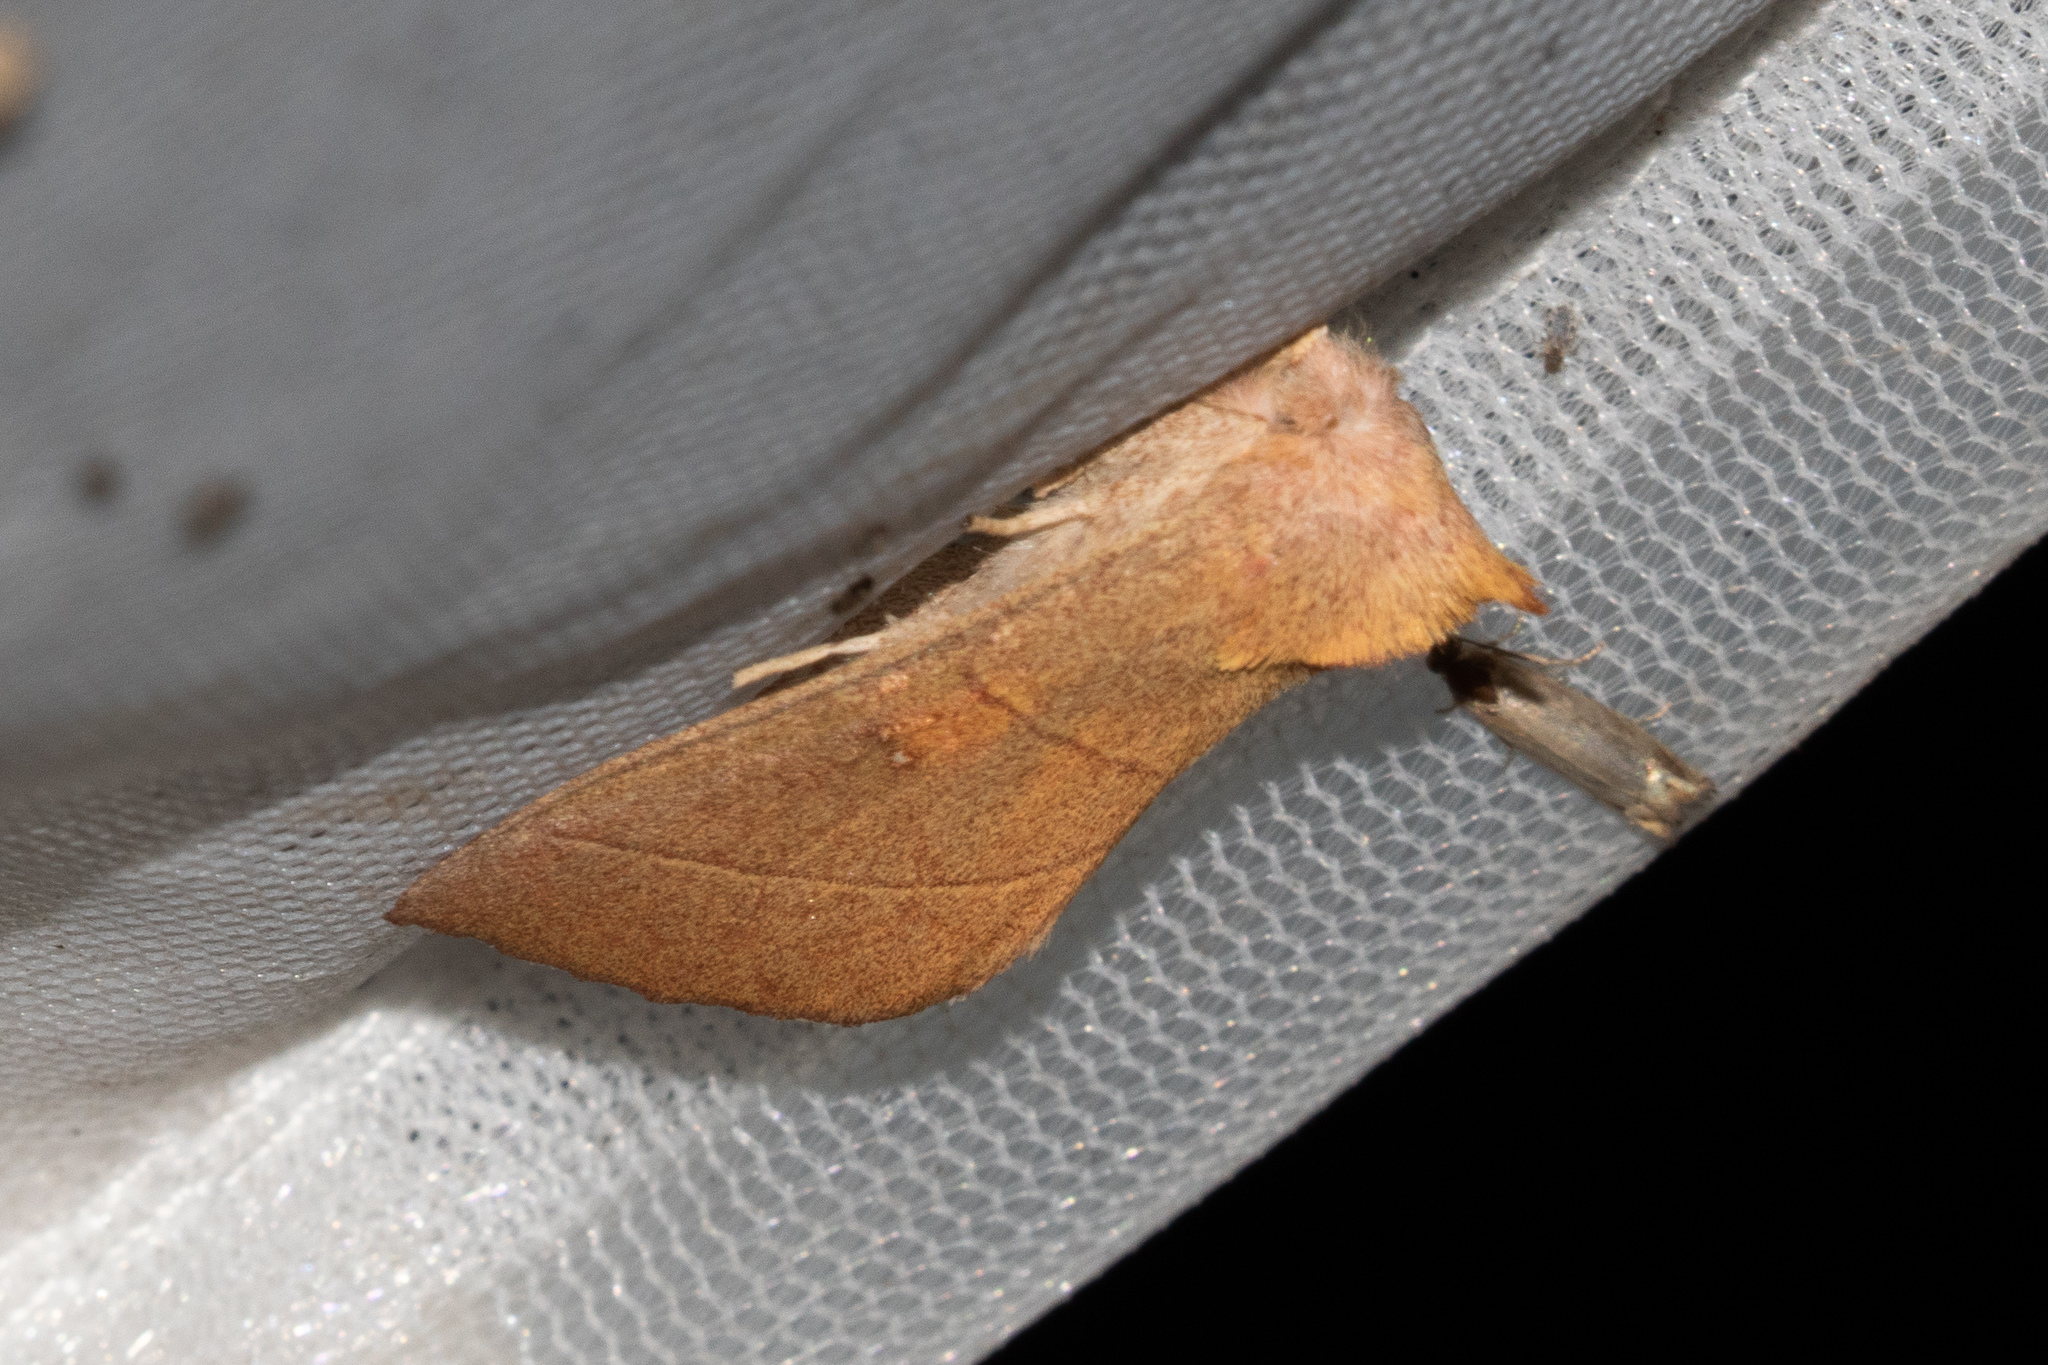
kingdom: Animalia
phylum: Arthropoda
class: Insecta
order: Lepidoptera
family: Notodontidae
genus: Nadata
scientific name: Nadata gibbosa
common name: White-dotted prominent
